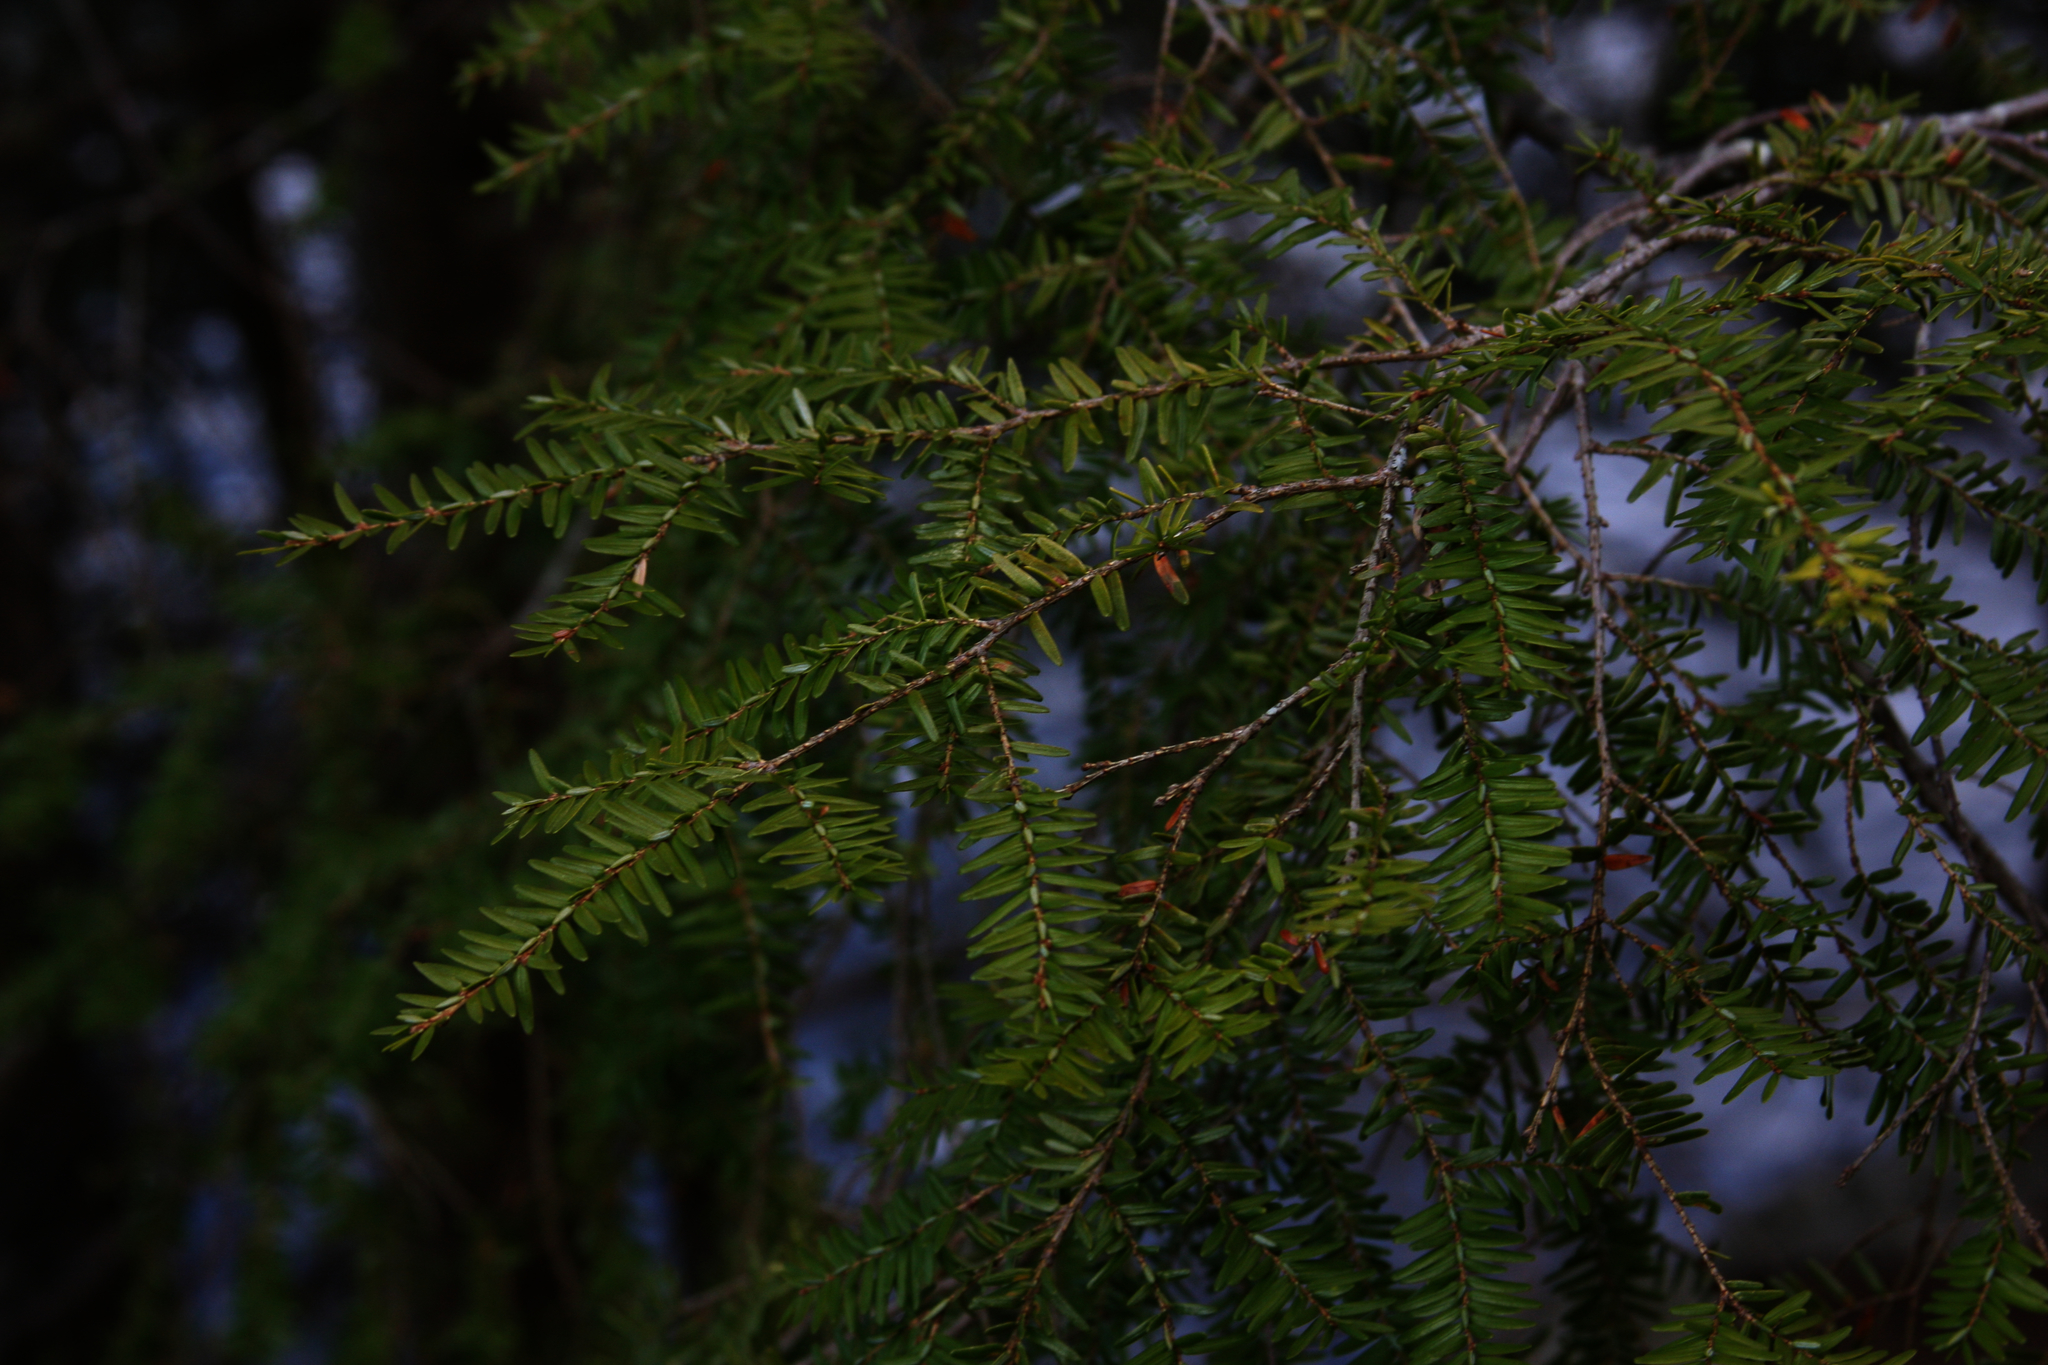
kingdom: Plantae
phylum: Tracheophyta
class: Pinopsida
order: Pinales
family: Pinaceae
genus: Tsuga
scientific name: Tsuga canadensis
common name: Eastern hemlock
